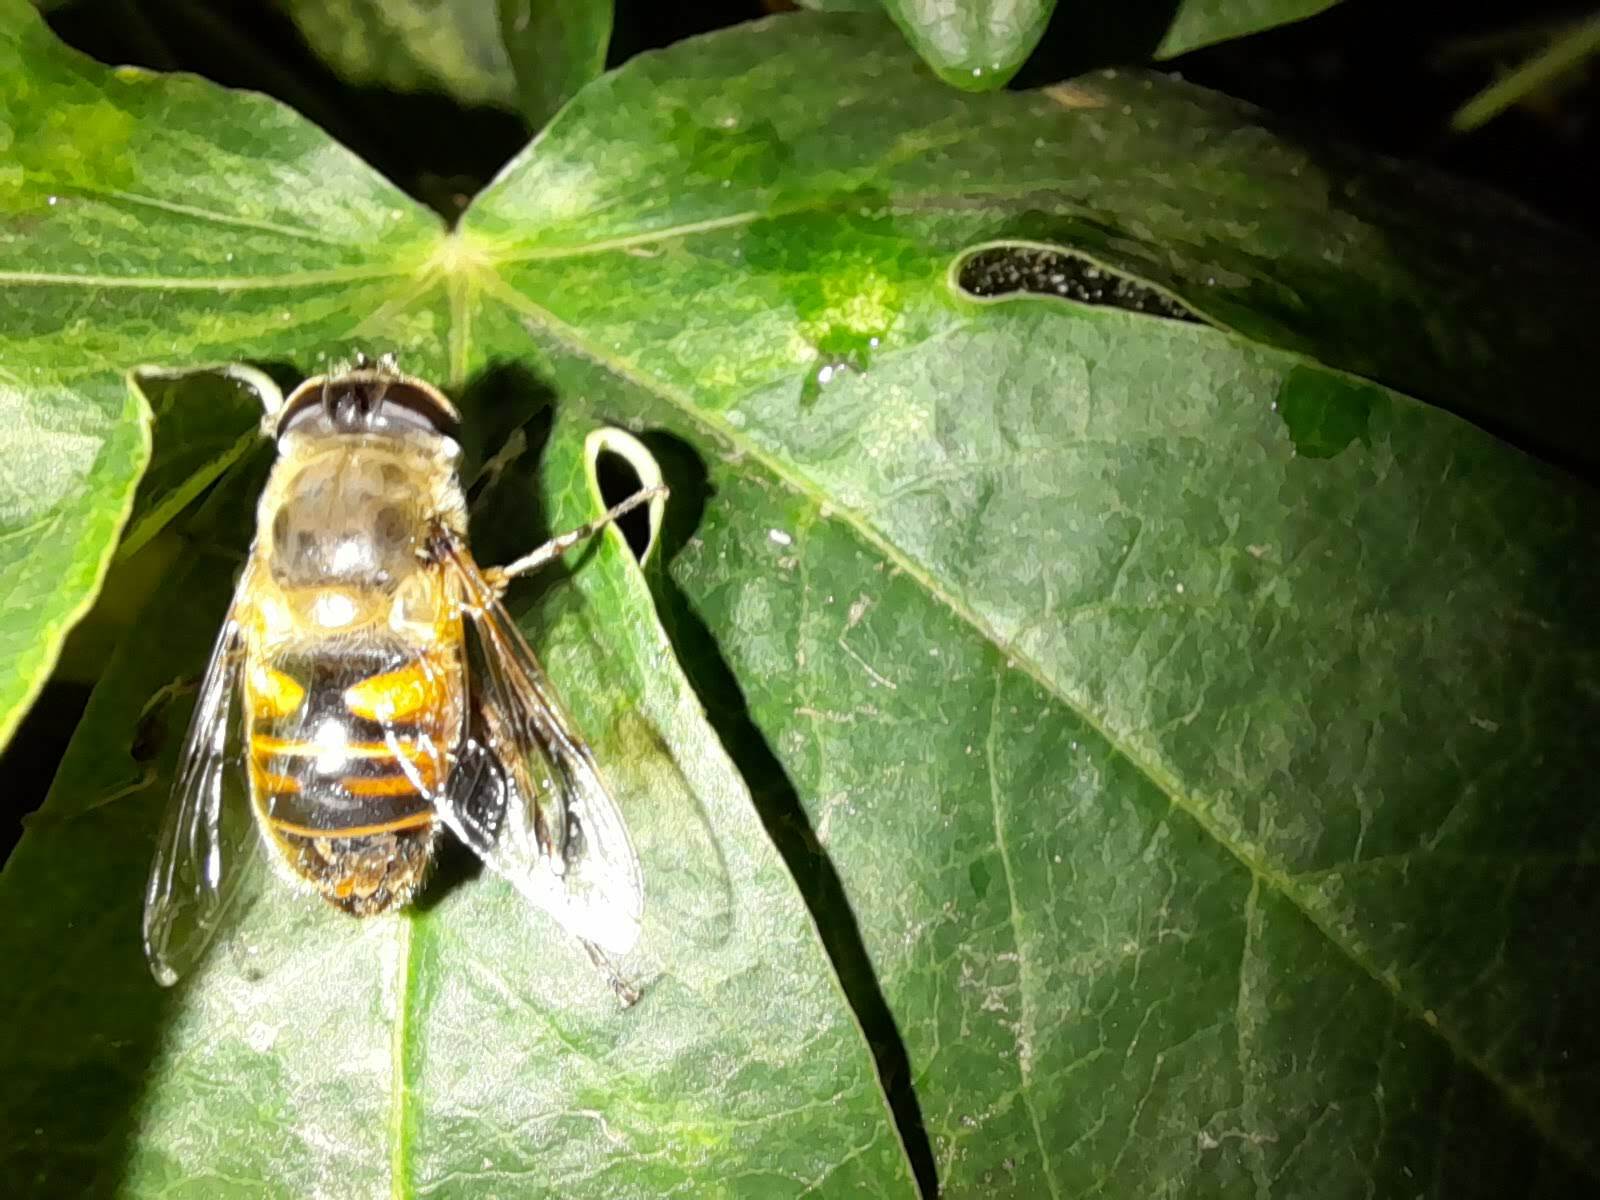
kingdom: Animalia
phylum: Arthropoda
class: Insecta
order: Diptera
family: Syrphidae
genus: Eristalis
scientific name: Eristalis tenax
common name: Drone fly
